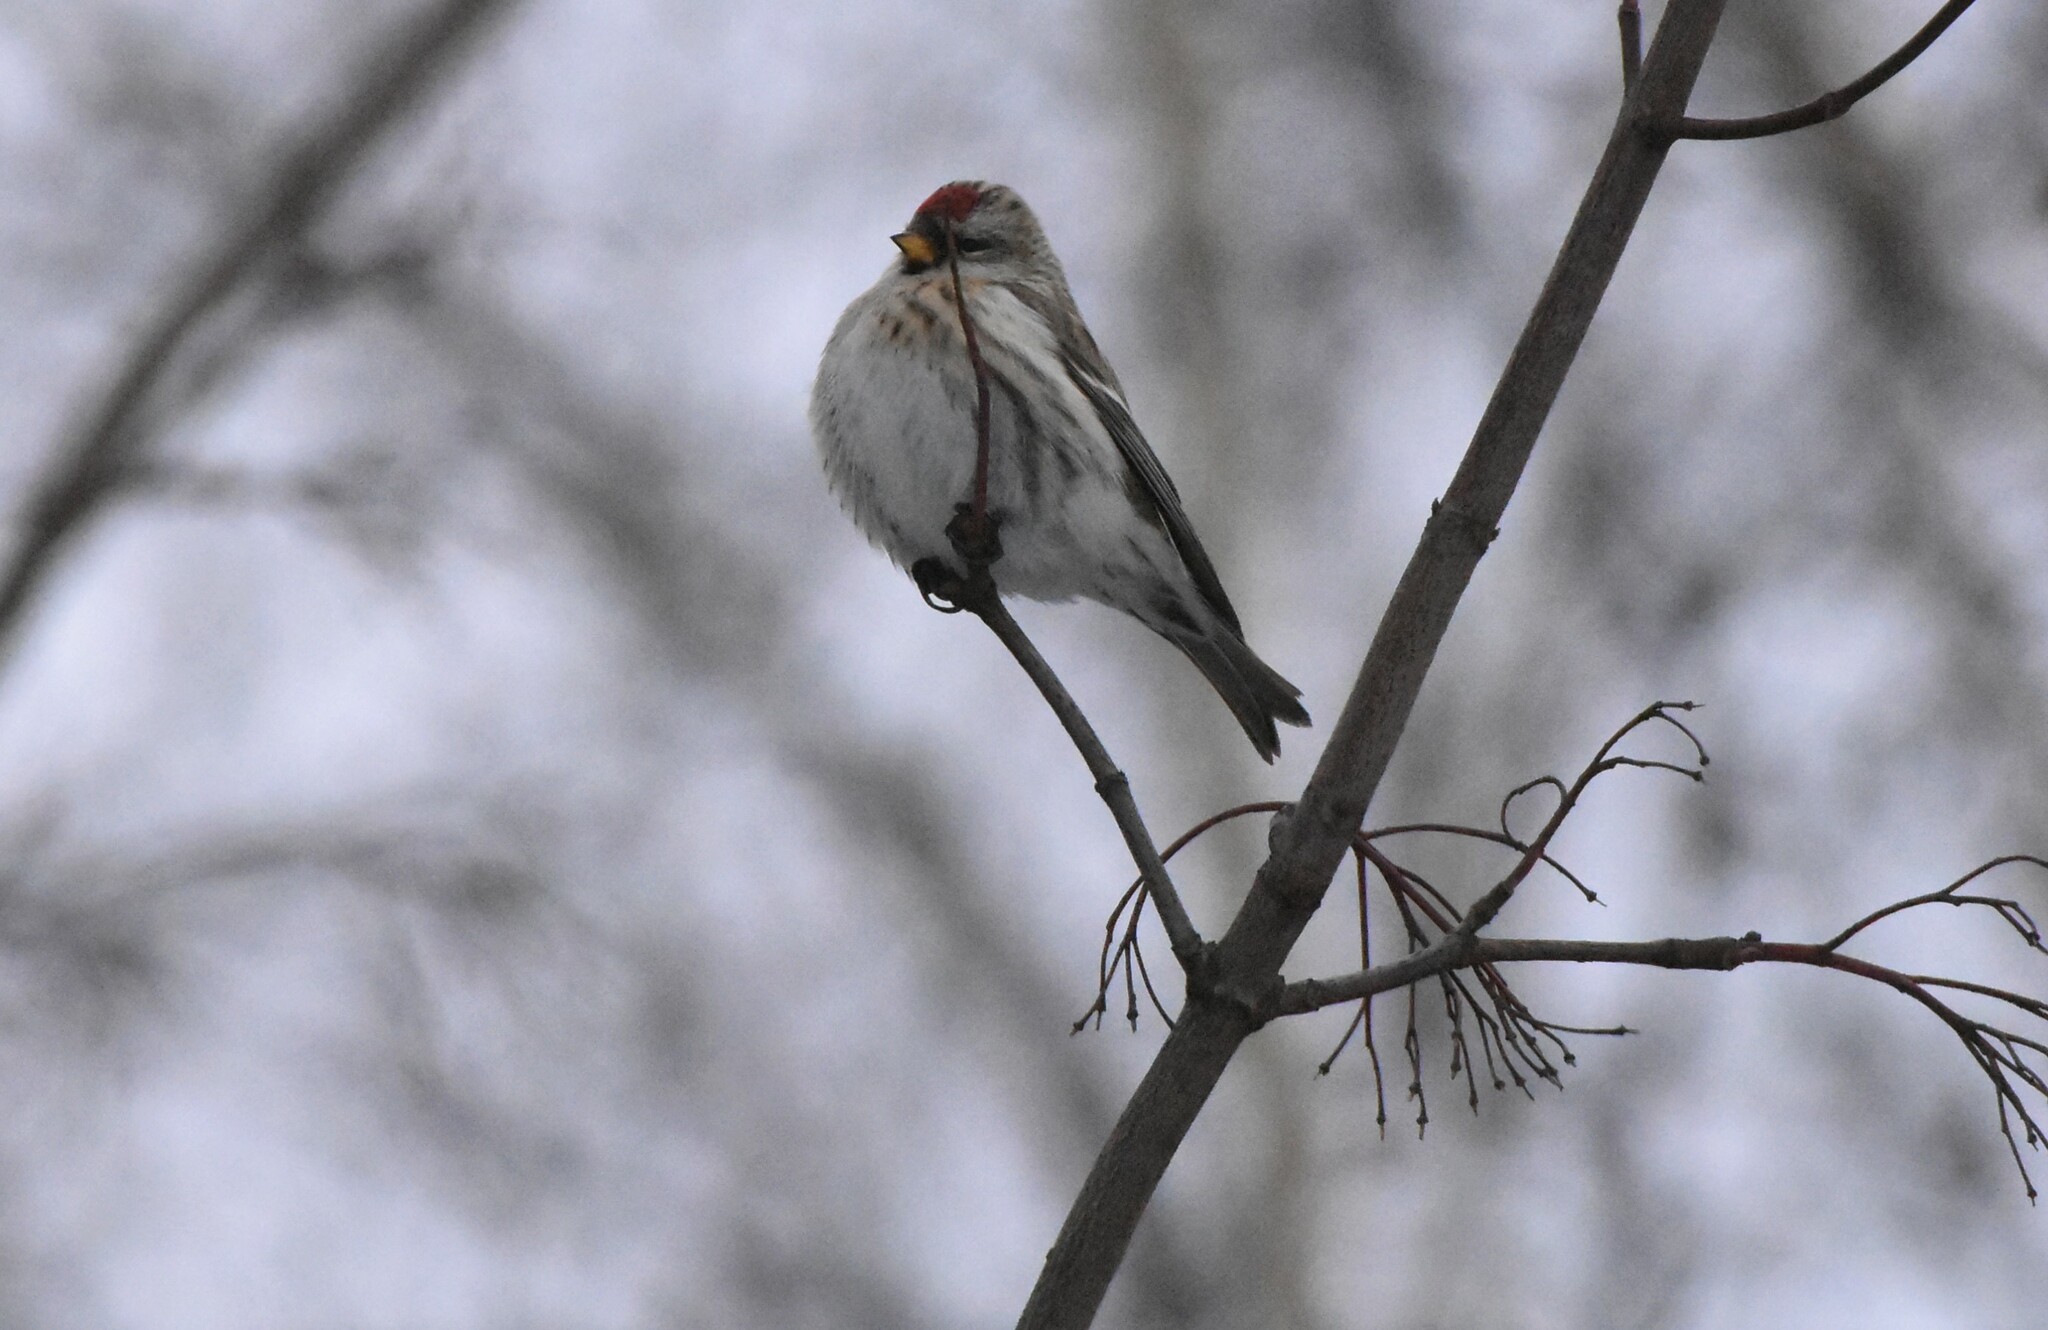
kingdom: Animalia
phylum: Chordata
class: Aves
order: Passeriformes
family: Fringillidae
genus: Acanthis
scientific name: Acanthis flammea
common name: Common redpoll
